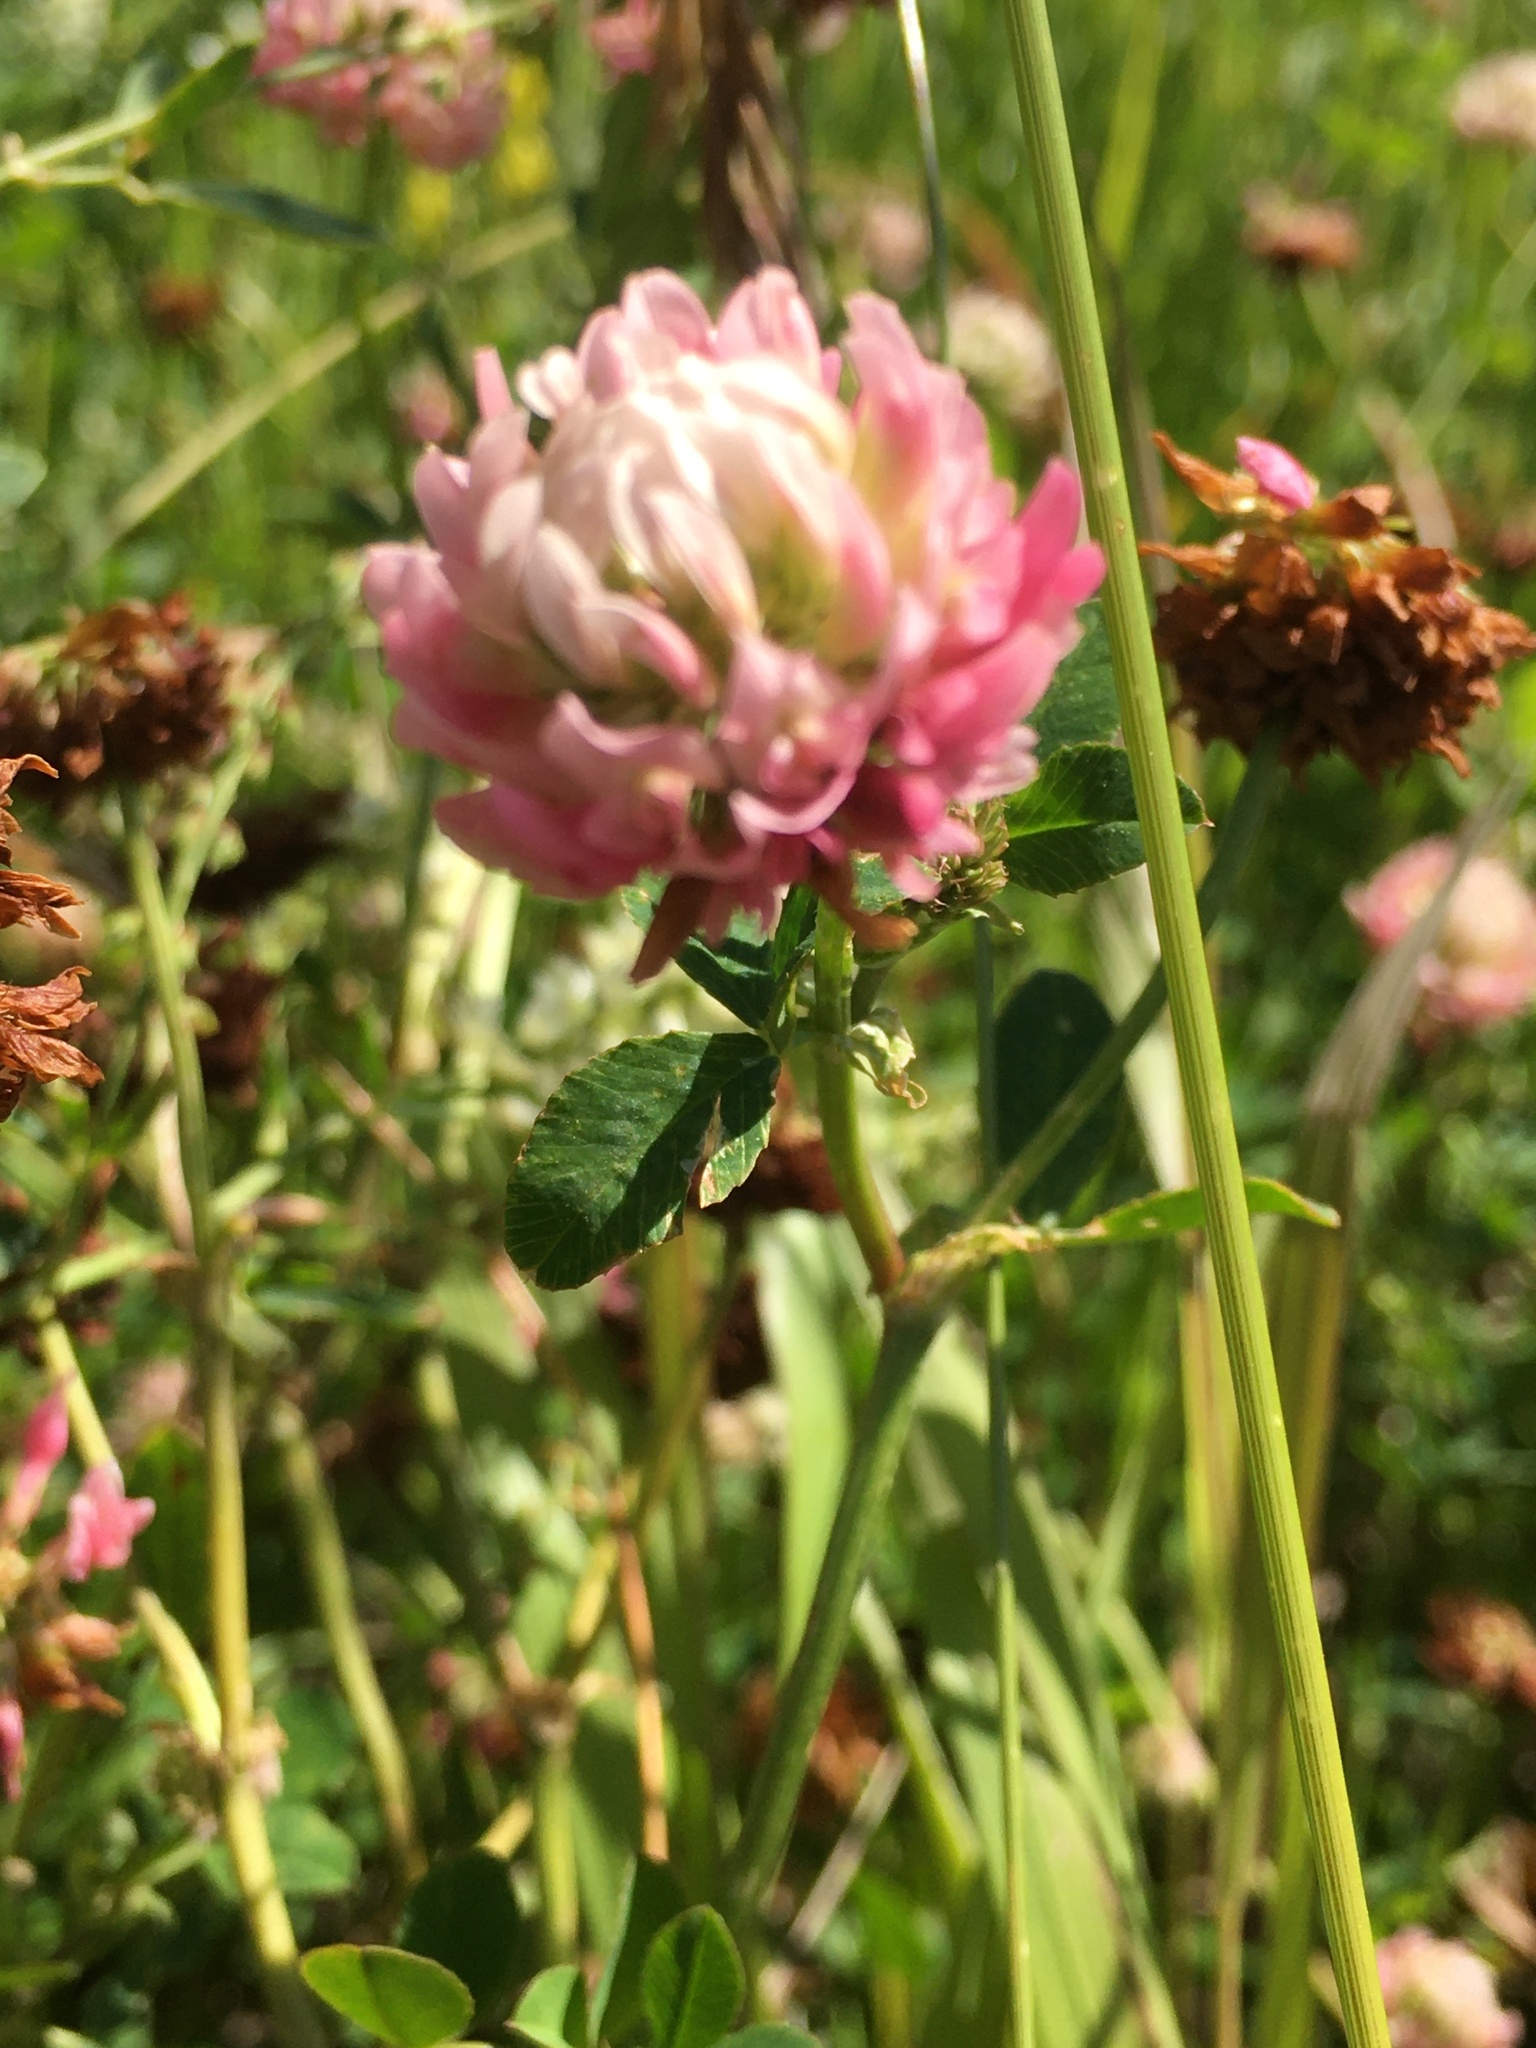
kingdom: Plantae
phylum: Tracheophyta
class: Magnoliopsida
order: Fabales
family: Fabaceae
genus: Trifolium
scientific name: Trifolium hybridum
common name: Alsike clover
